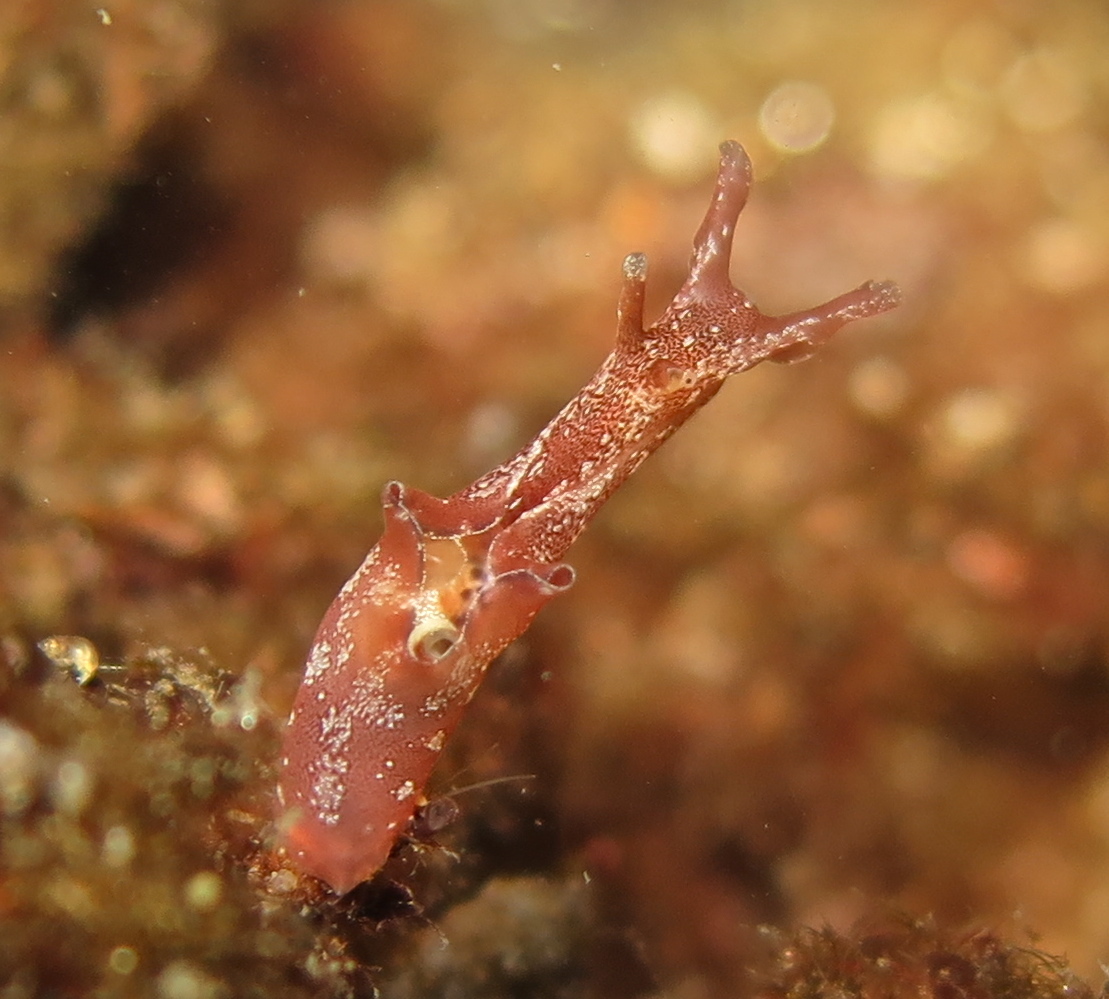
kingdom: Animalia
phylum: Mollusca
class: Gastropoda
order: Aplysiida
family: Aplysiidae
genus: Aplysia
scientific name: Aplysia punctata
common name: Common sea hare
